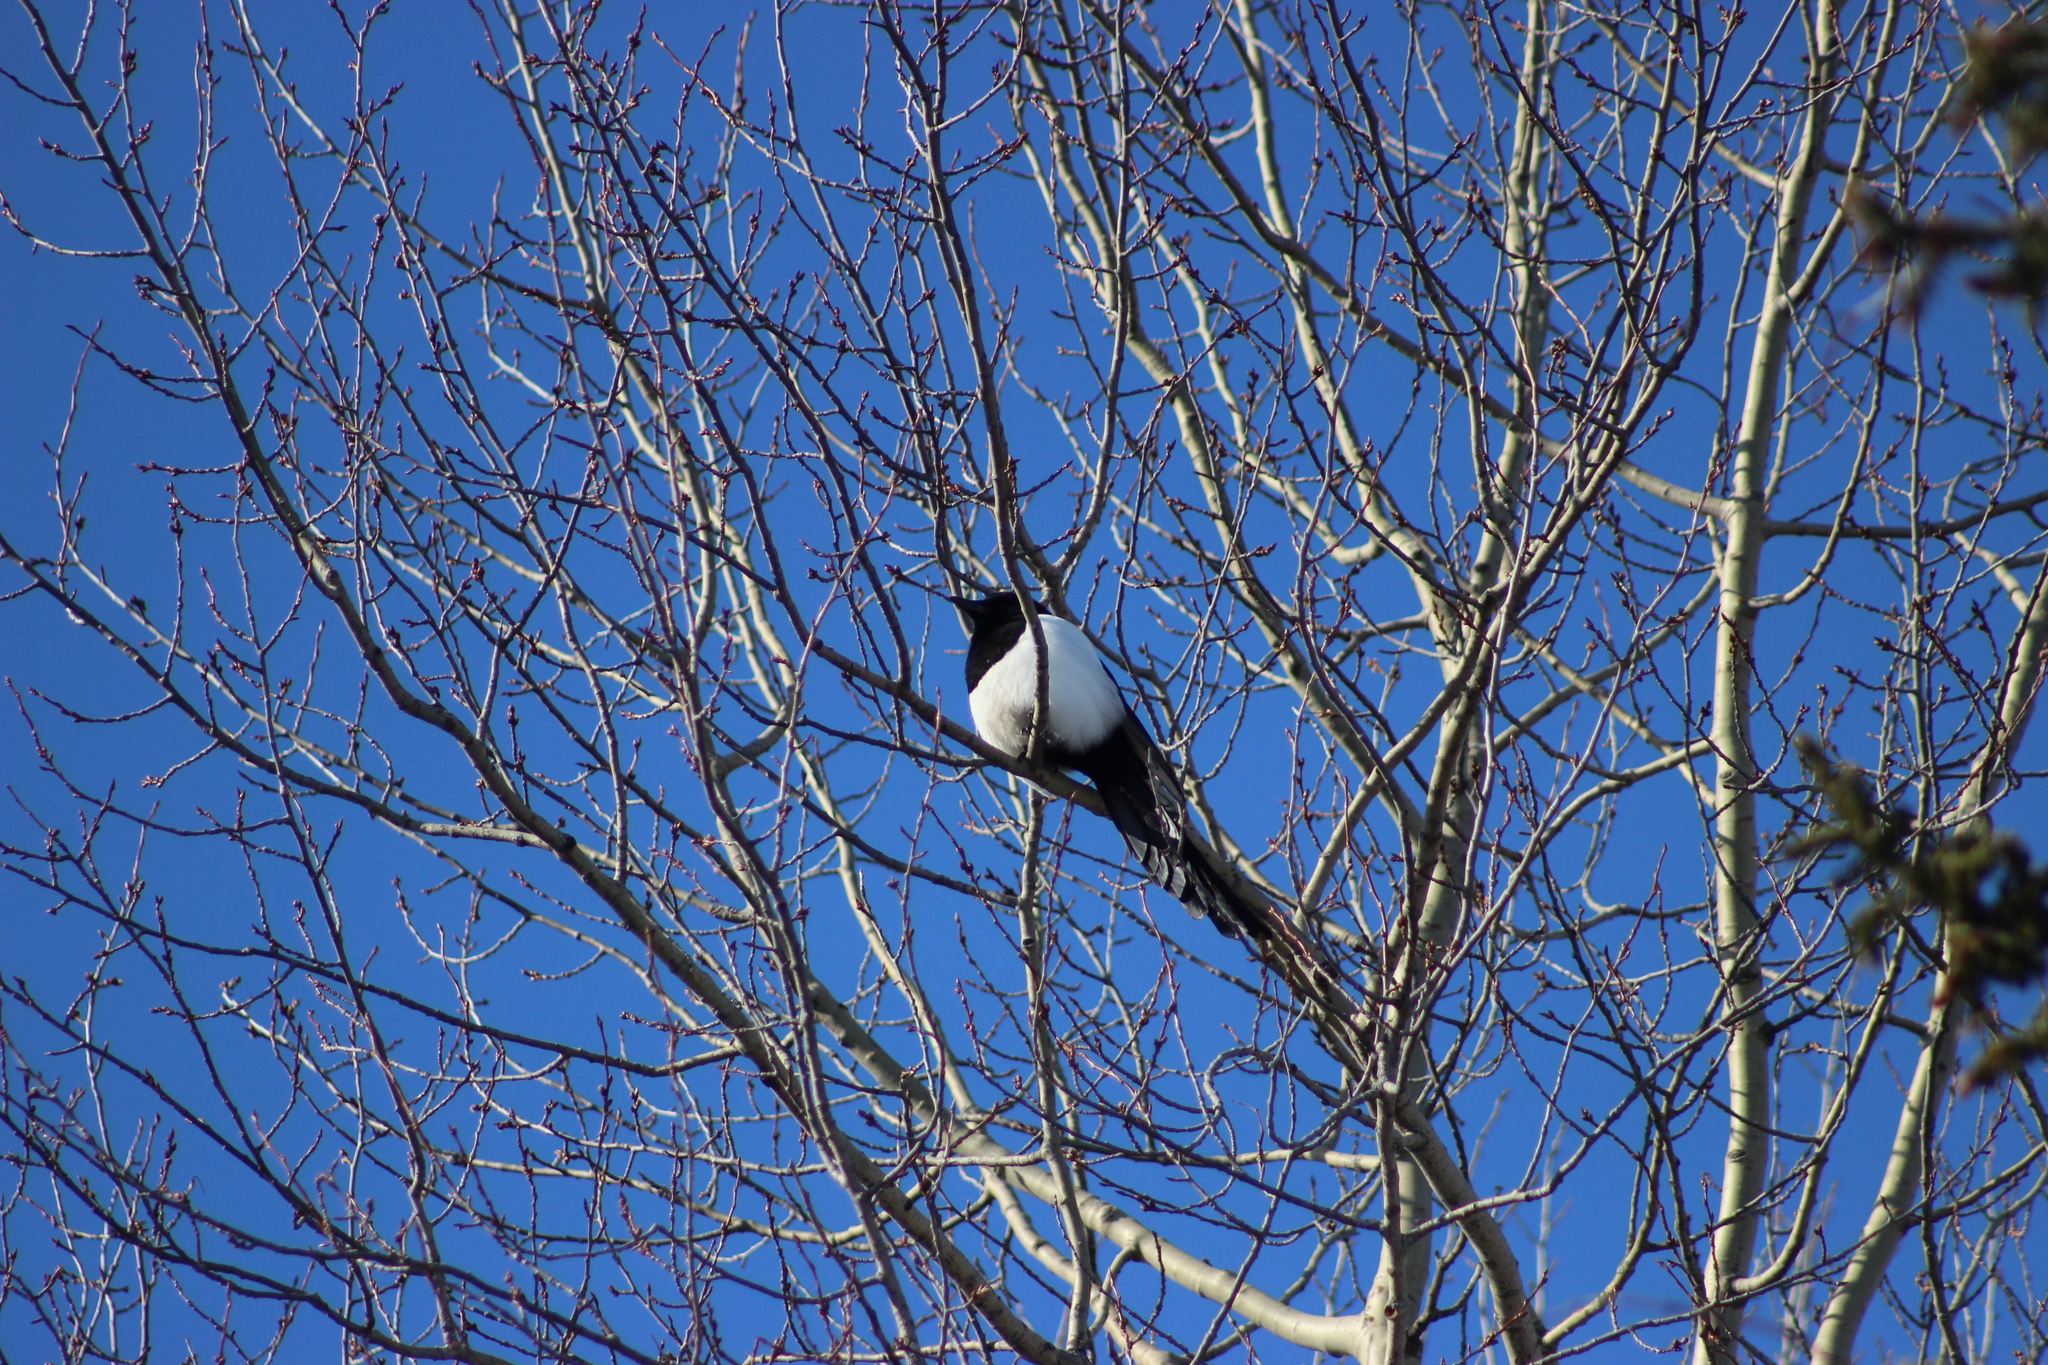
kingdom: Animalia
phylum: Chordata
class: Aves
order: Passeriformes
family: Corvidae
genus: Pica
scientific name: Pica pica
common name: Eurasian magpie
